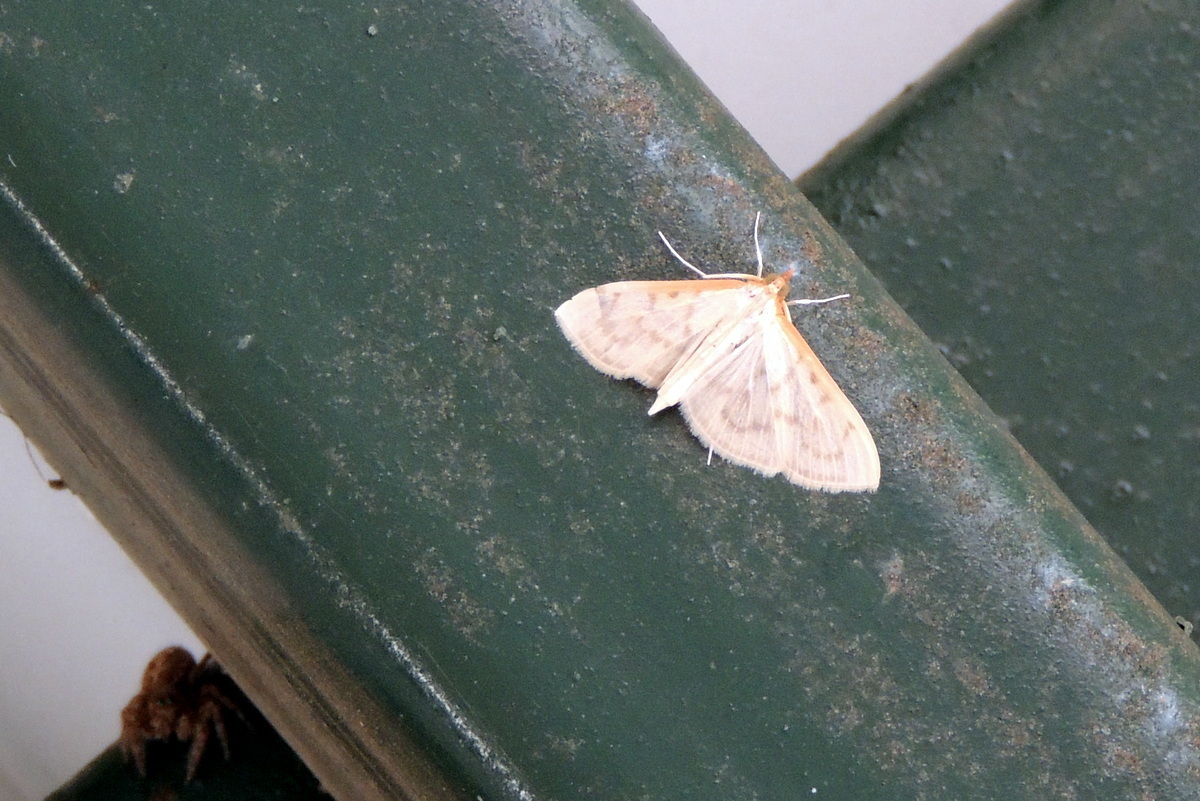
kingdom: Animalia
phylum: Arthropoda
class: Insecta
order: Lepidoptera
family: Crambidae
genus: Pyrausta
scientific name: Pyrausta testalis
